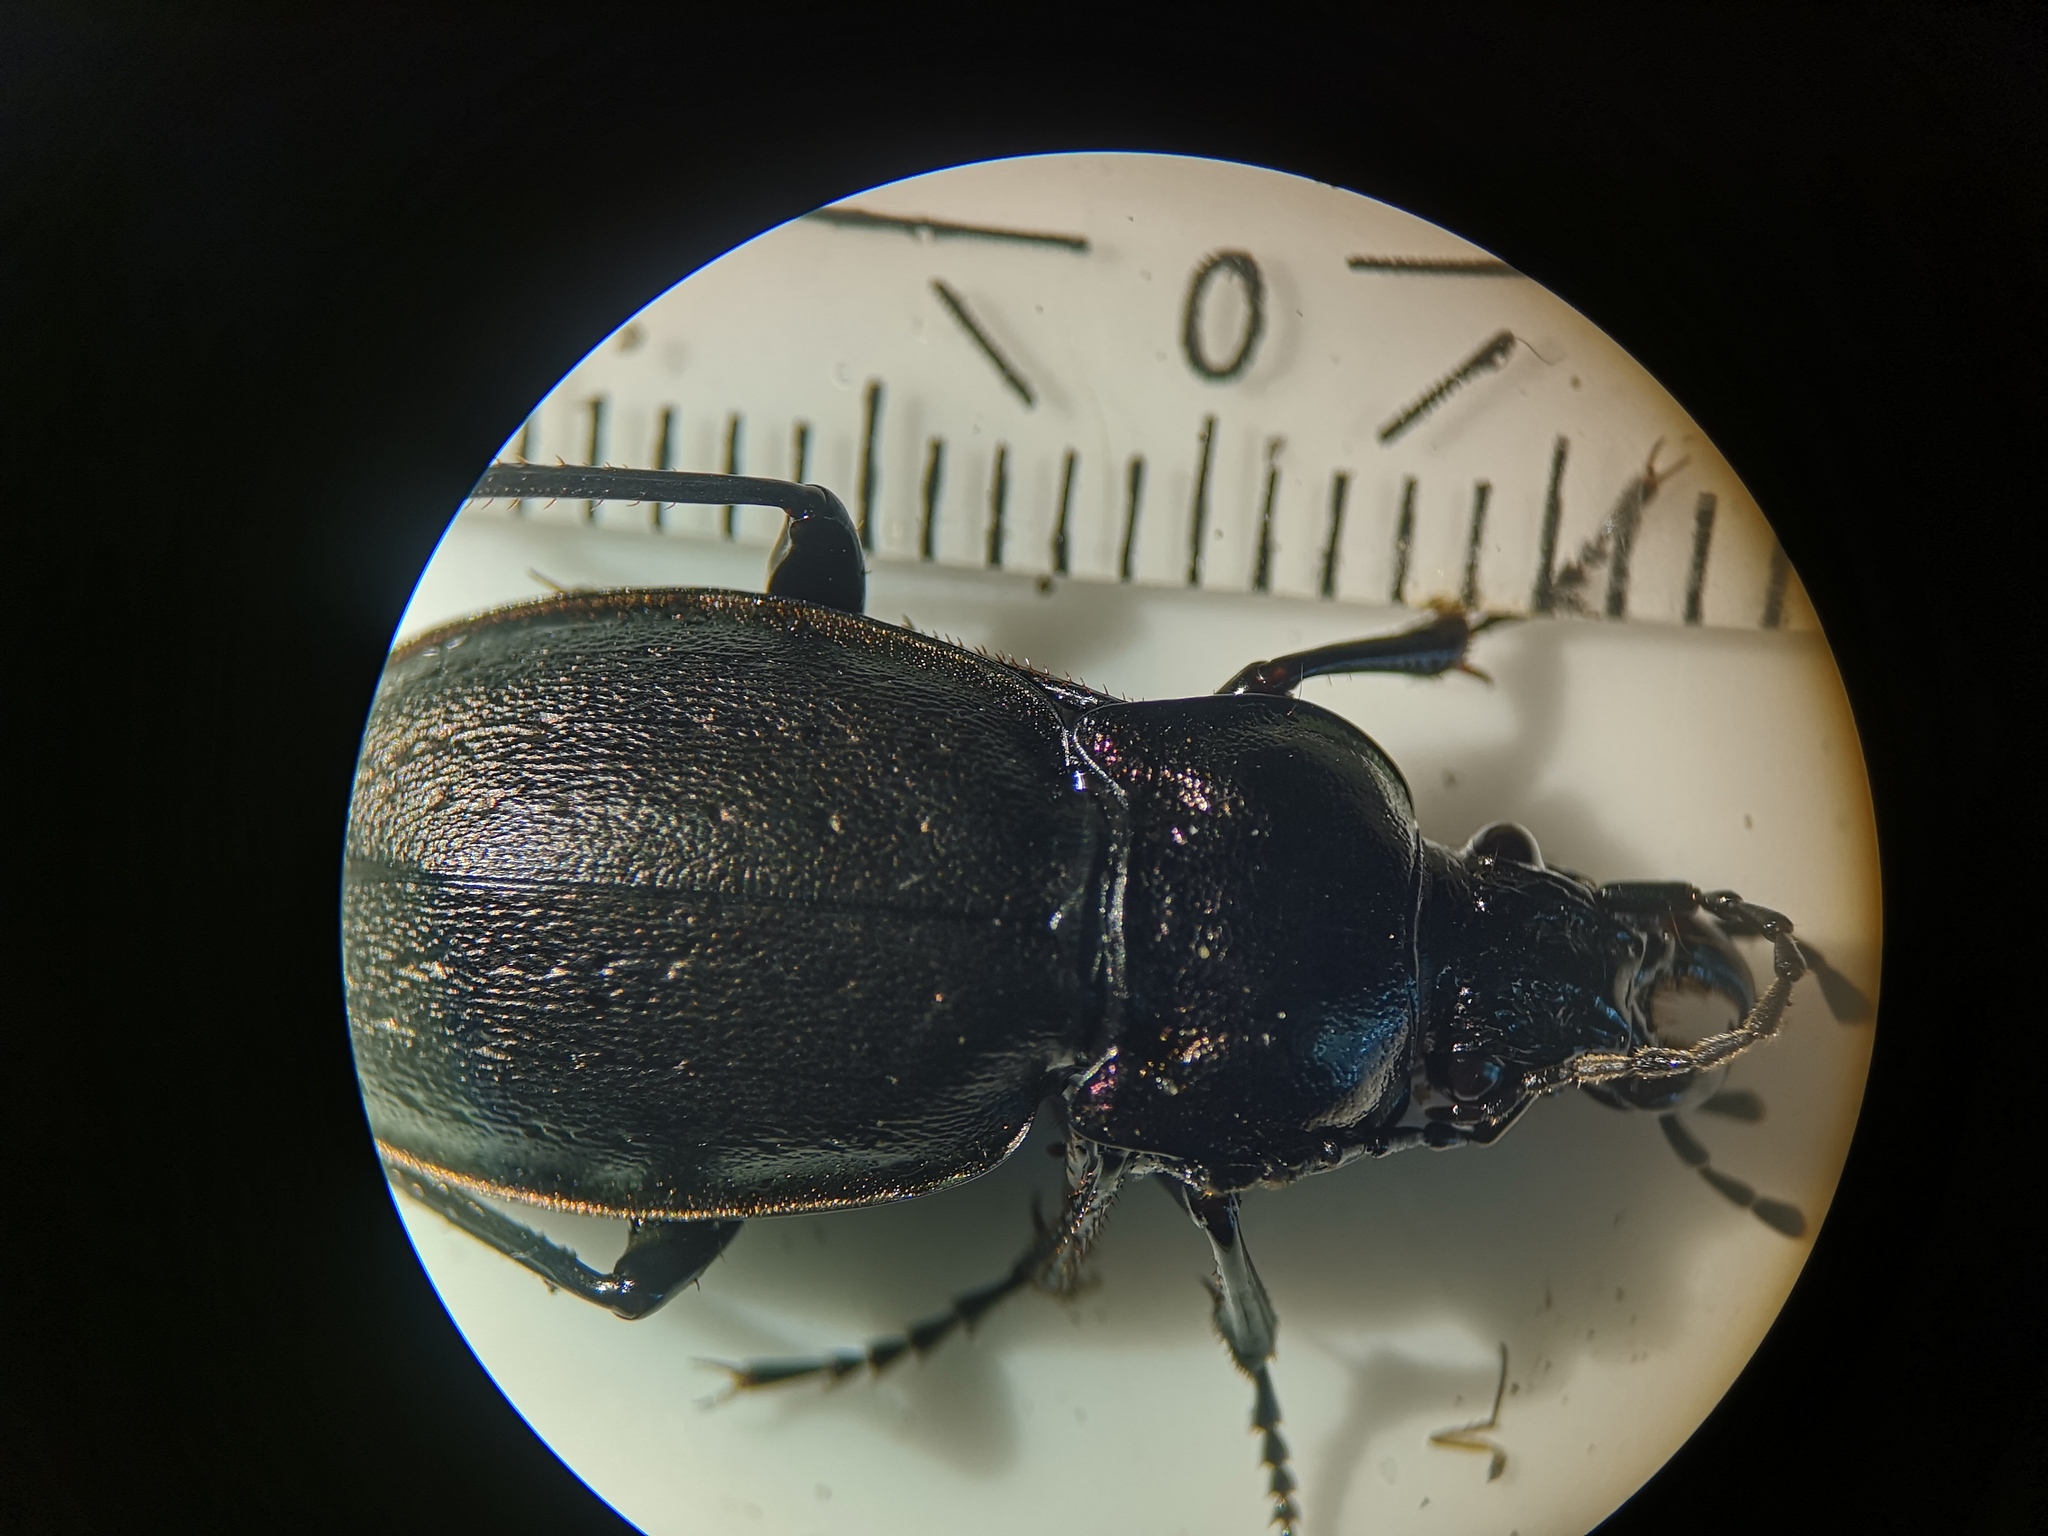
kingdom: Animalia
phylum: Arthropoda
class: Insecta
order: Coleoptera
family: Carabidae
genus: Carabus
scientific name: Carabus nemoralis
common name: European ground beetle
